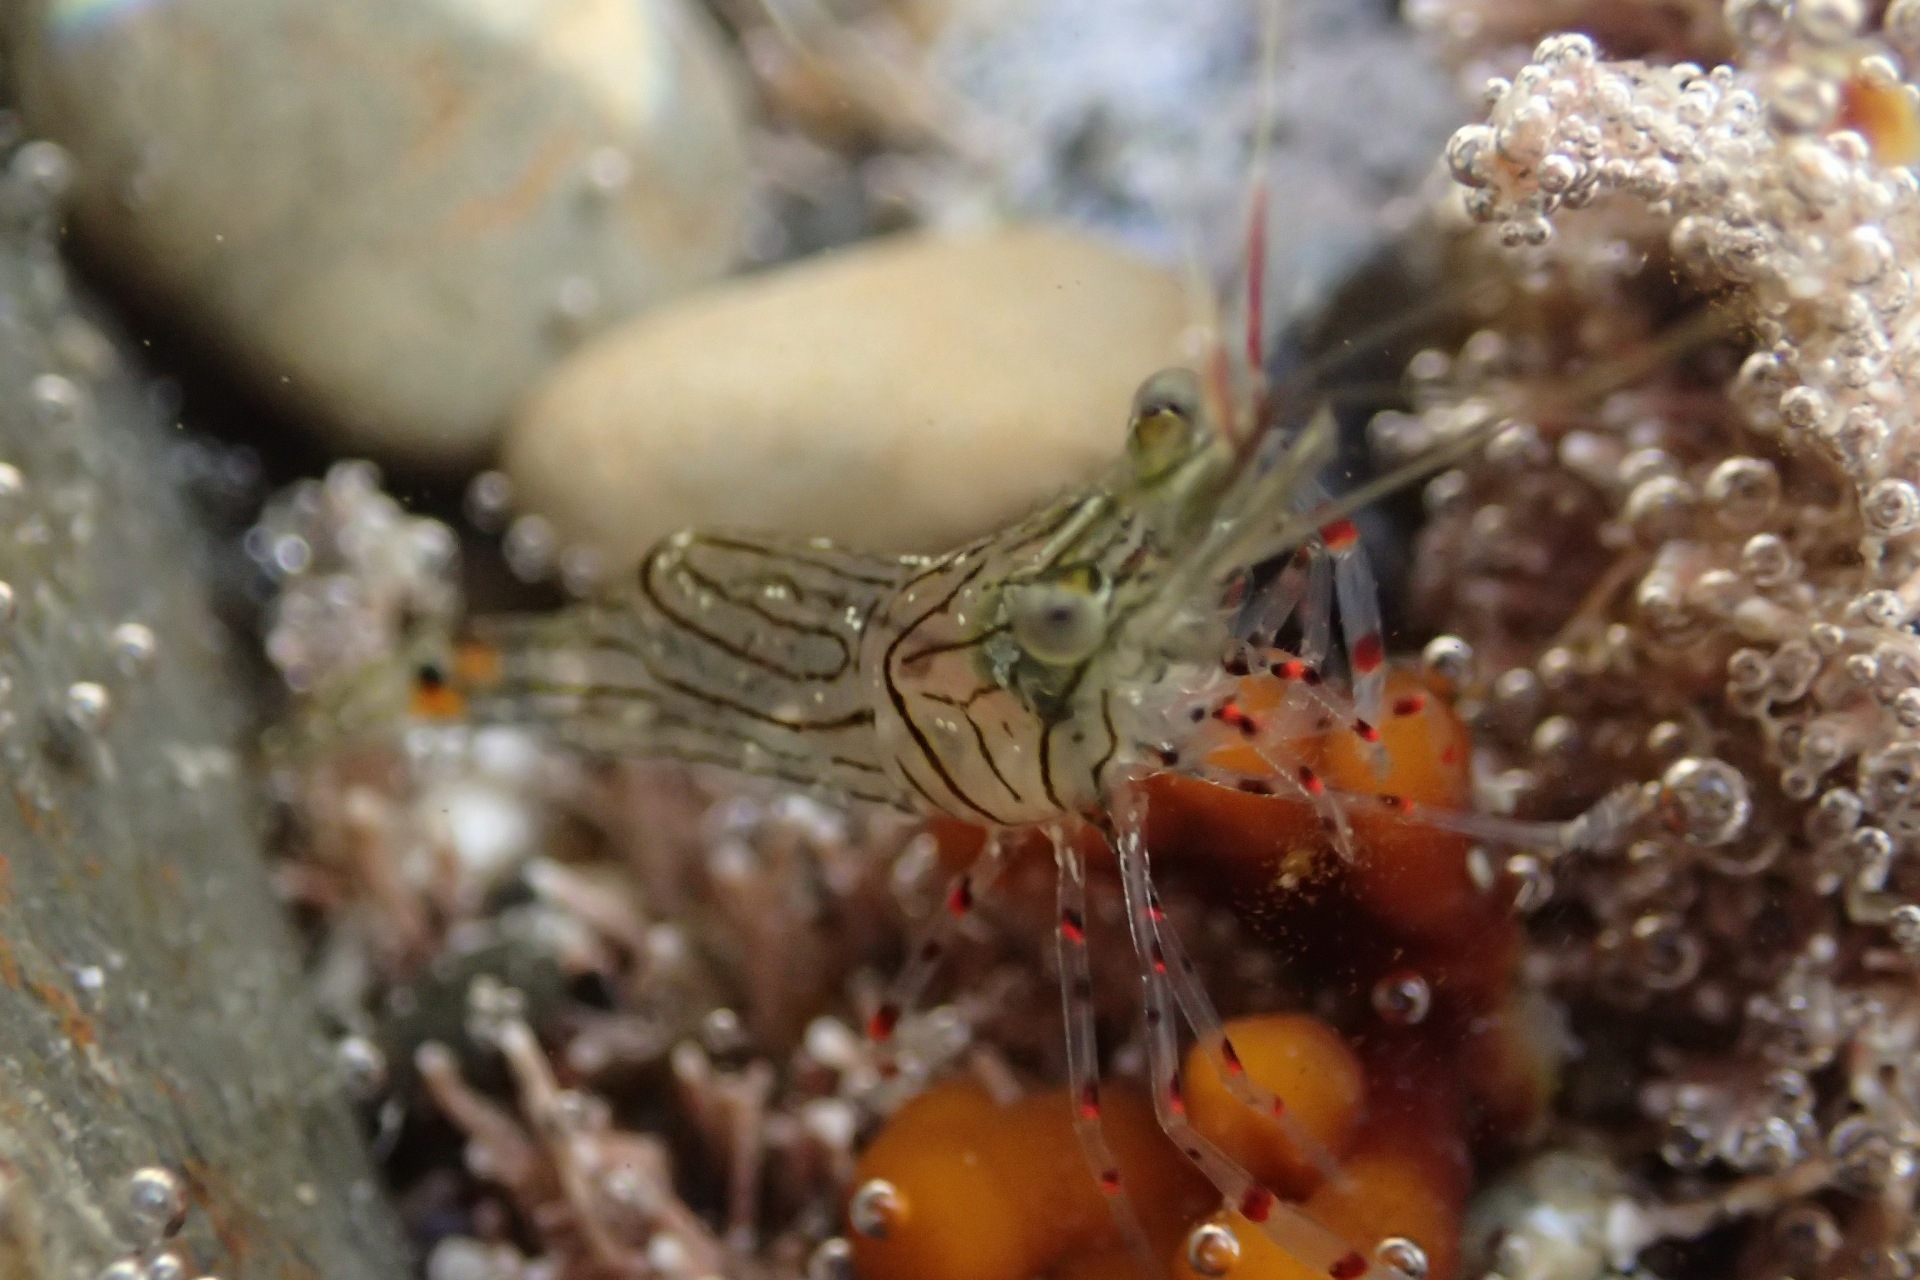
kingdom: Animalia
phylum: Arthropoda
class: Malacostraca
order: Decapoda
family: Palaemonidae
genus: Palaemon
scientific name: Palaemon affinis
